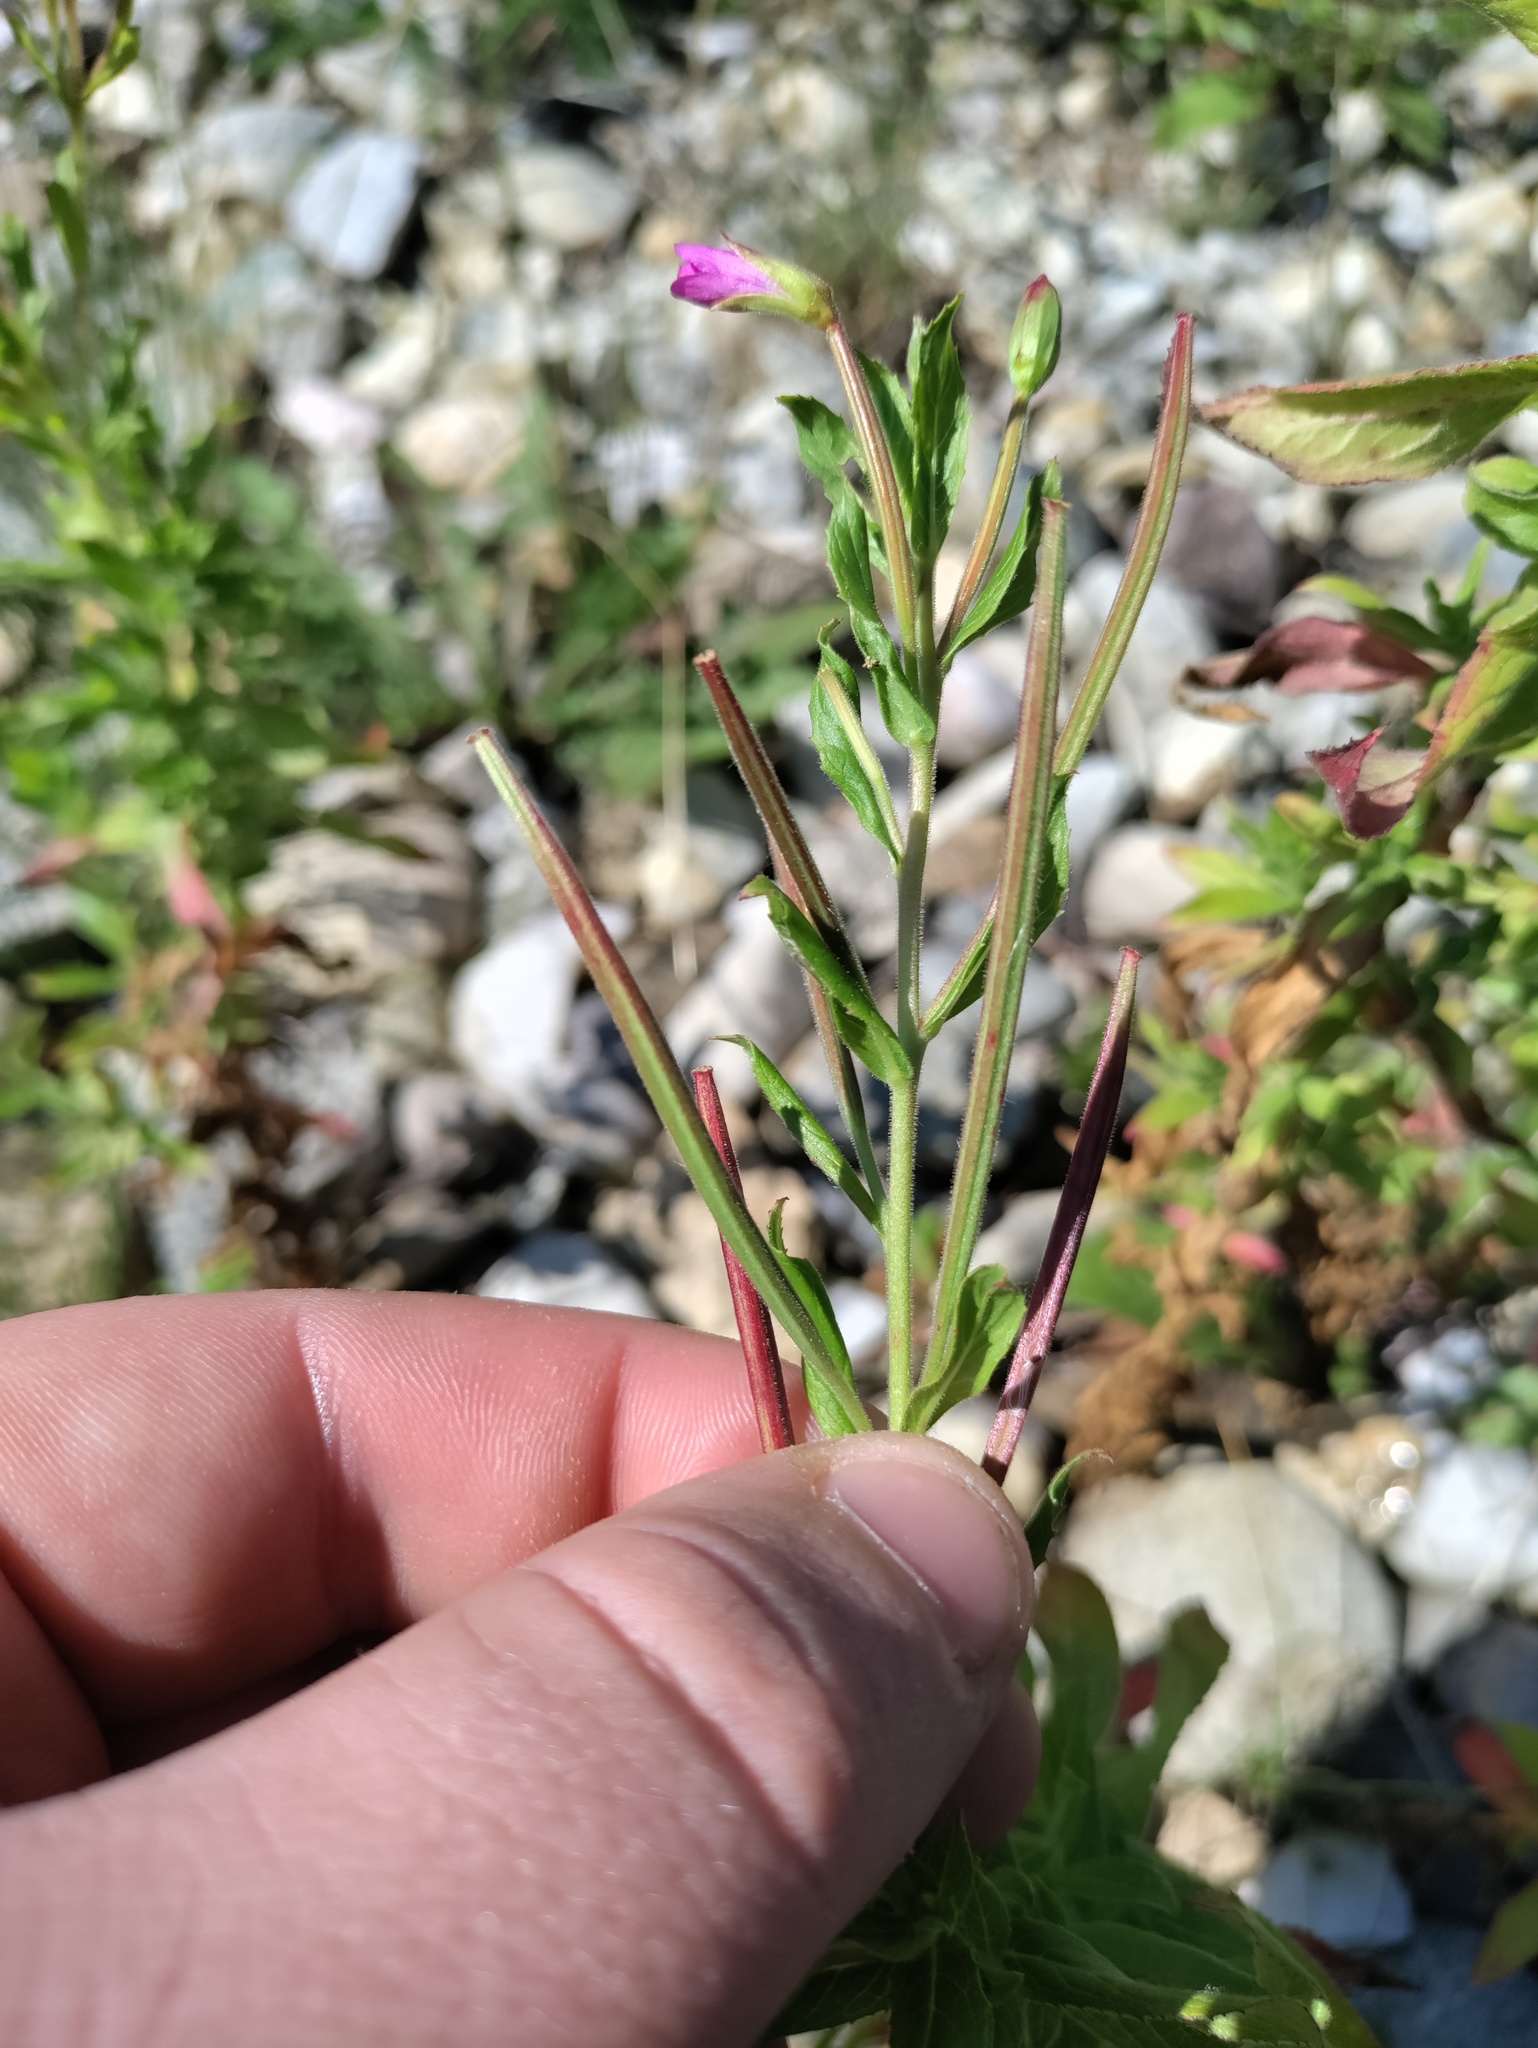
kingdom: Plantae
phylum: Tracheophyta
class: Magnoliopsida
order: Myrtales
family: Onagraceae
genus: Epilobium
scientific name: Epilobium hirsutum
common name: Great willowherb
